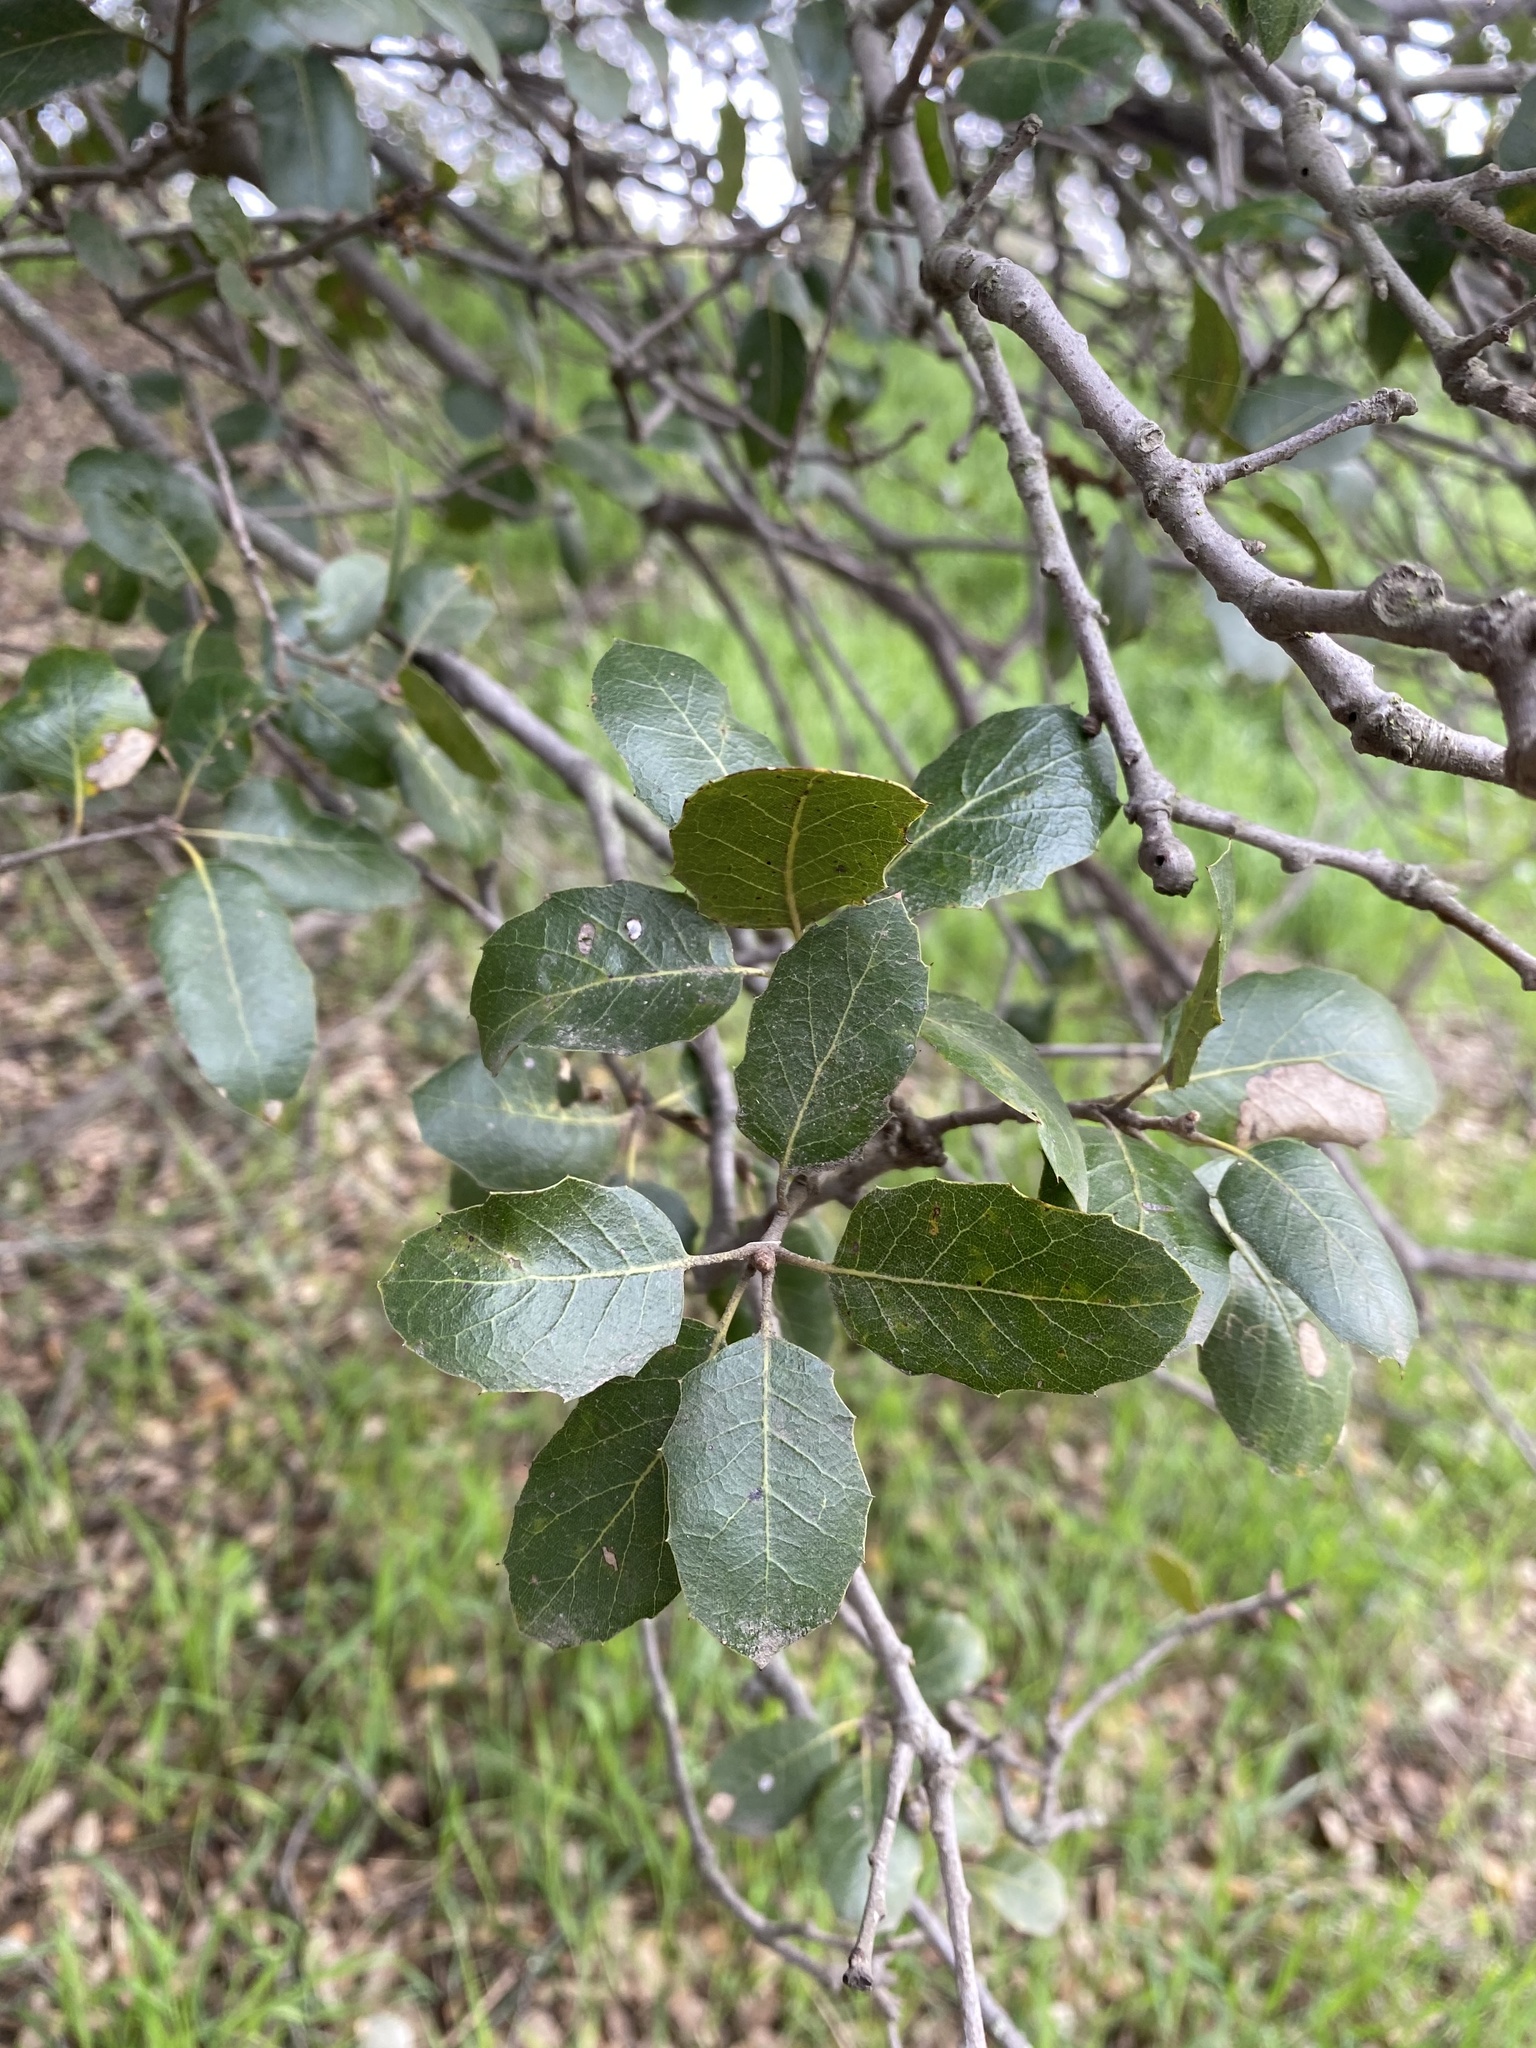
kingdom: Plantae
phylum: Tracheophyta
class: Magnoliopsida
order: Fagales
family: Fagaceae
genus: Quercus
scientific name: Quercus wislizeni
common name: Interior live oak
